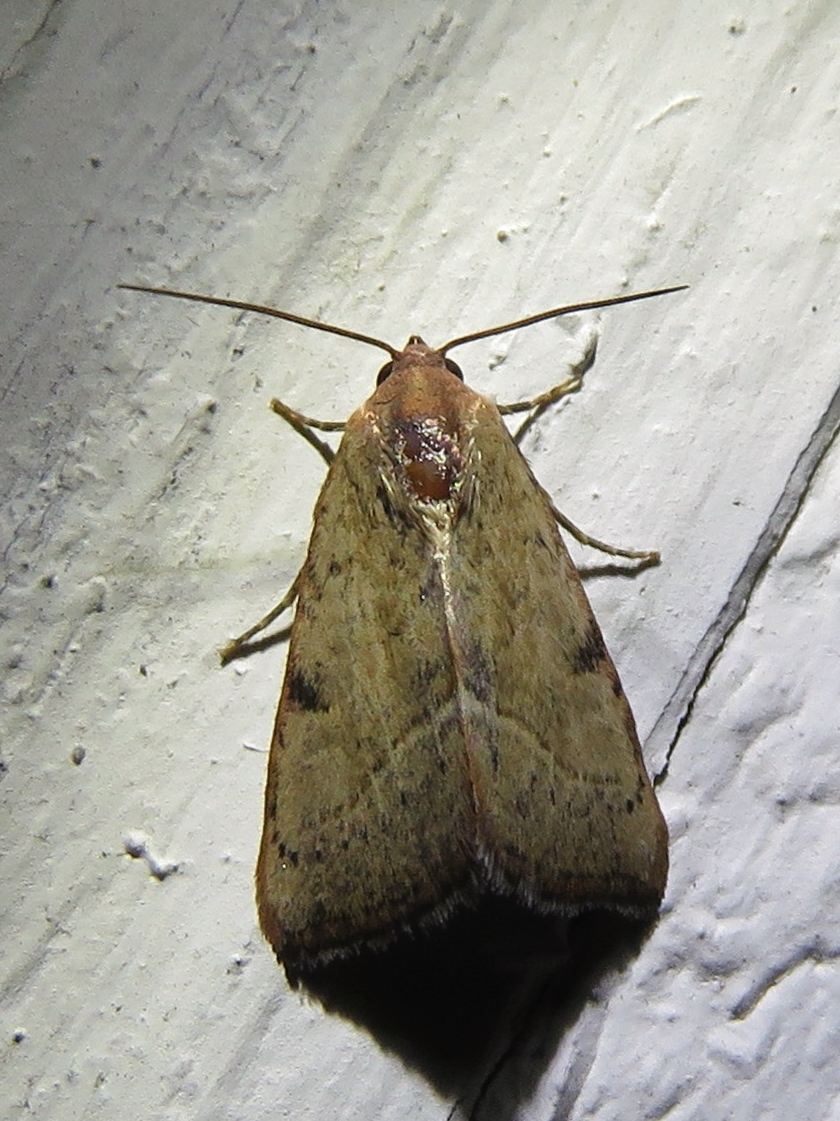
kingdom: Animalia
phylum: Arthropoda
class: Insecta
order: Lepidoptera
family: Noctuidae
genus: Galgula
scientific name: Galgula partita
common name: Wedgeling
